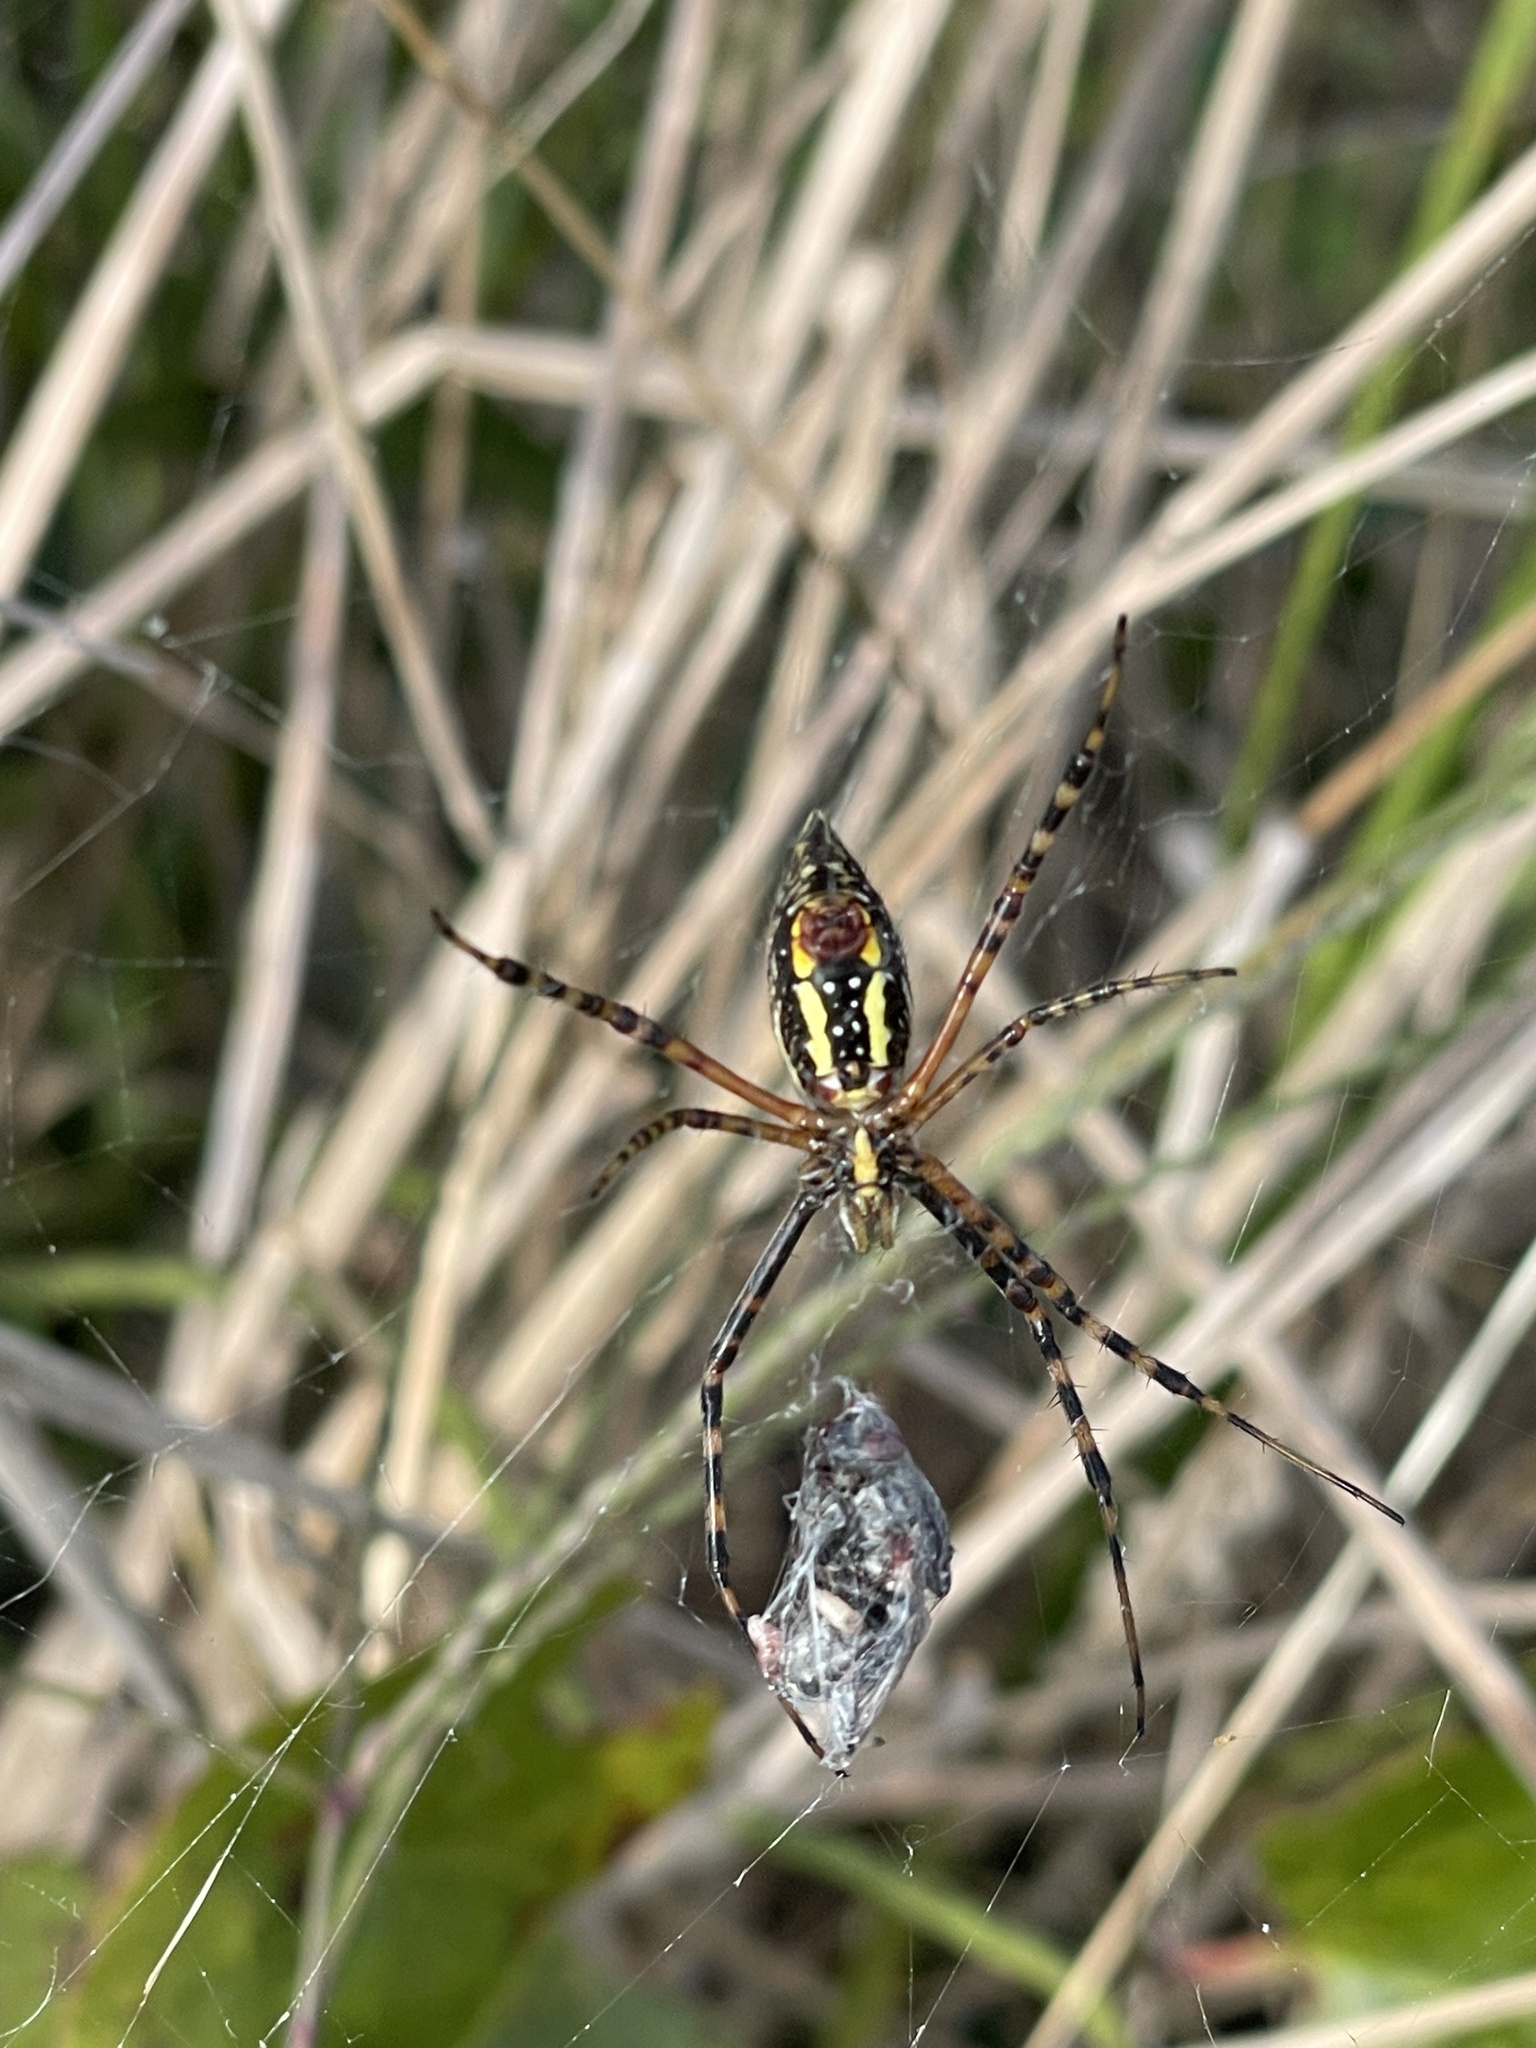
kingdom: Animalia
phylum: Arthropoda
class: Arachnida
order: Araneae
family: Araneidae
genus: Argiope
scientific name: Argiope trifasciata
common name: Banded garden spider
